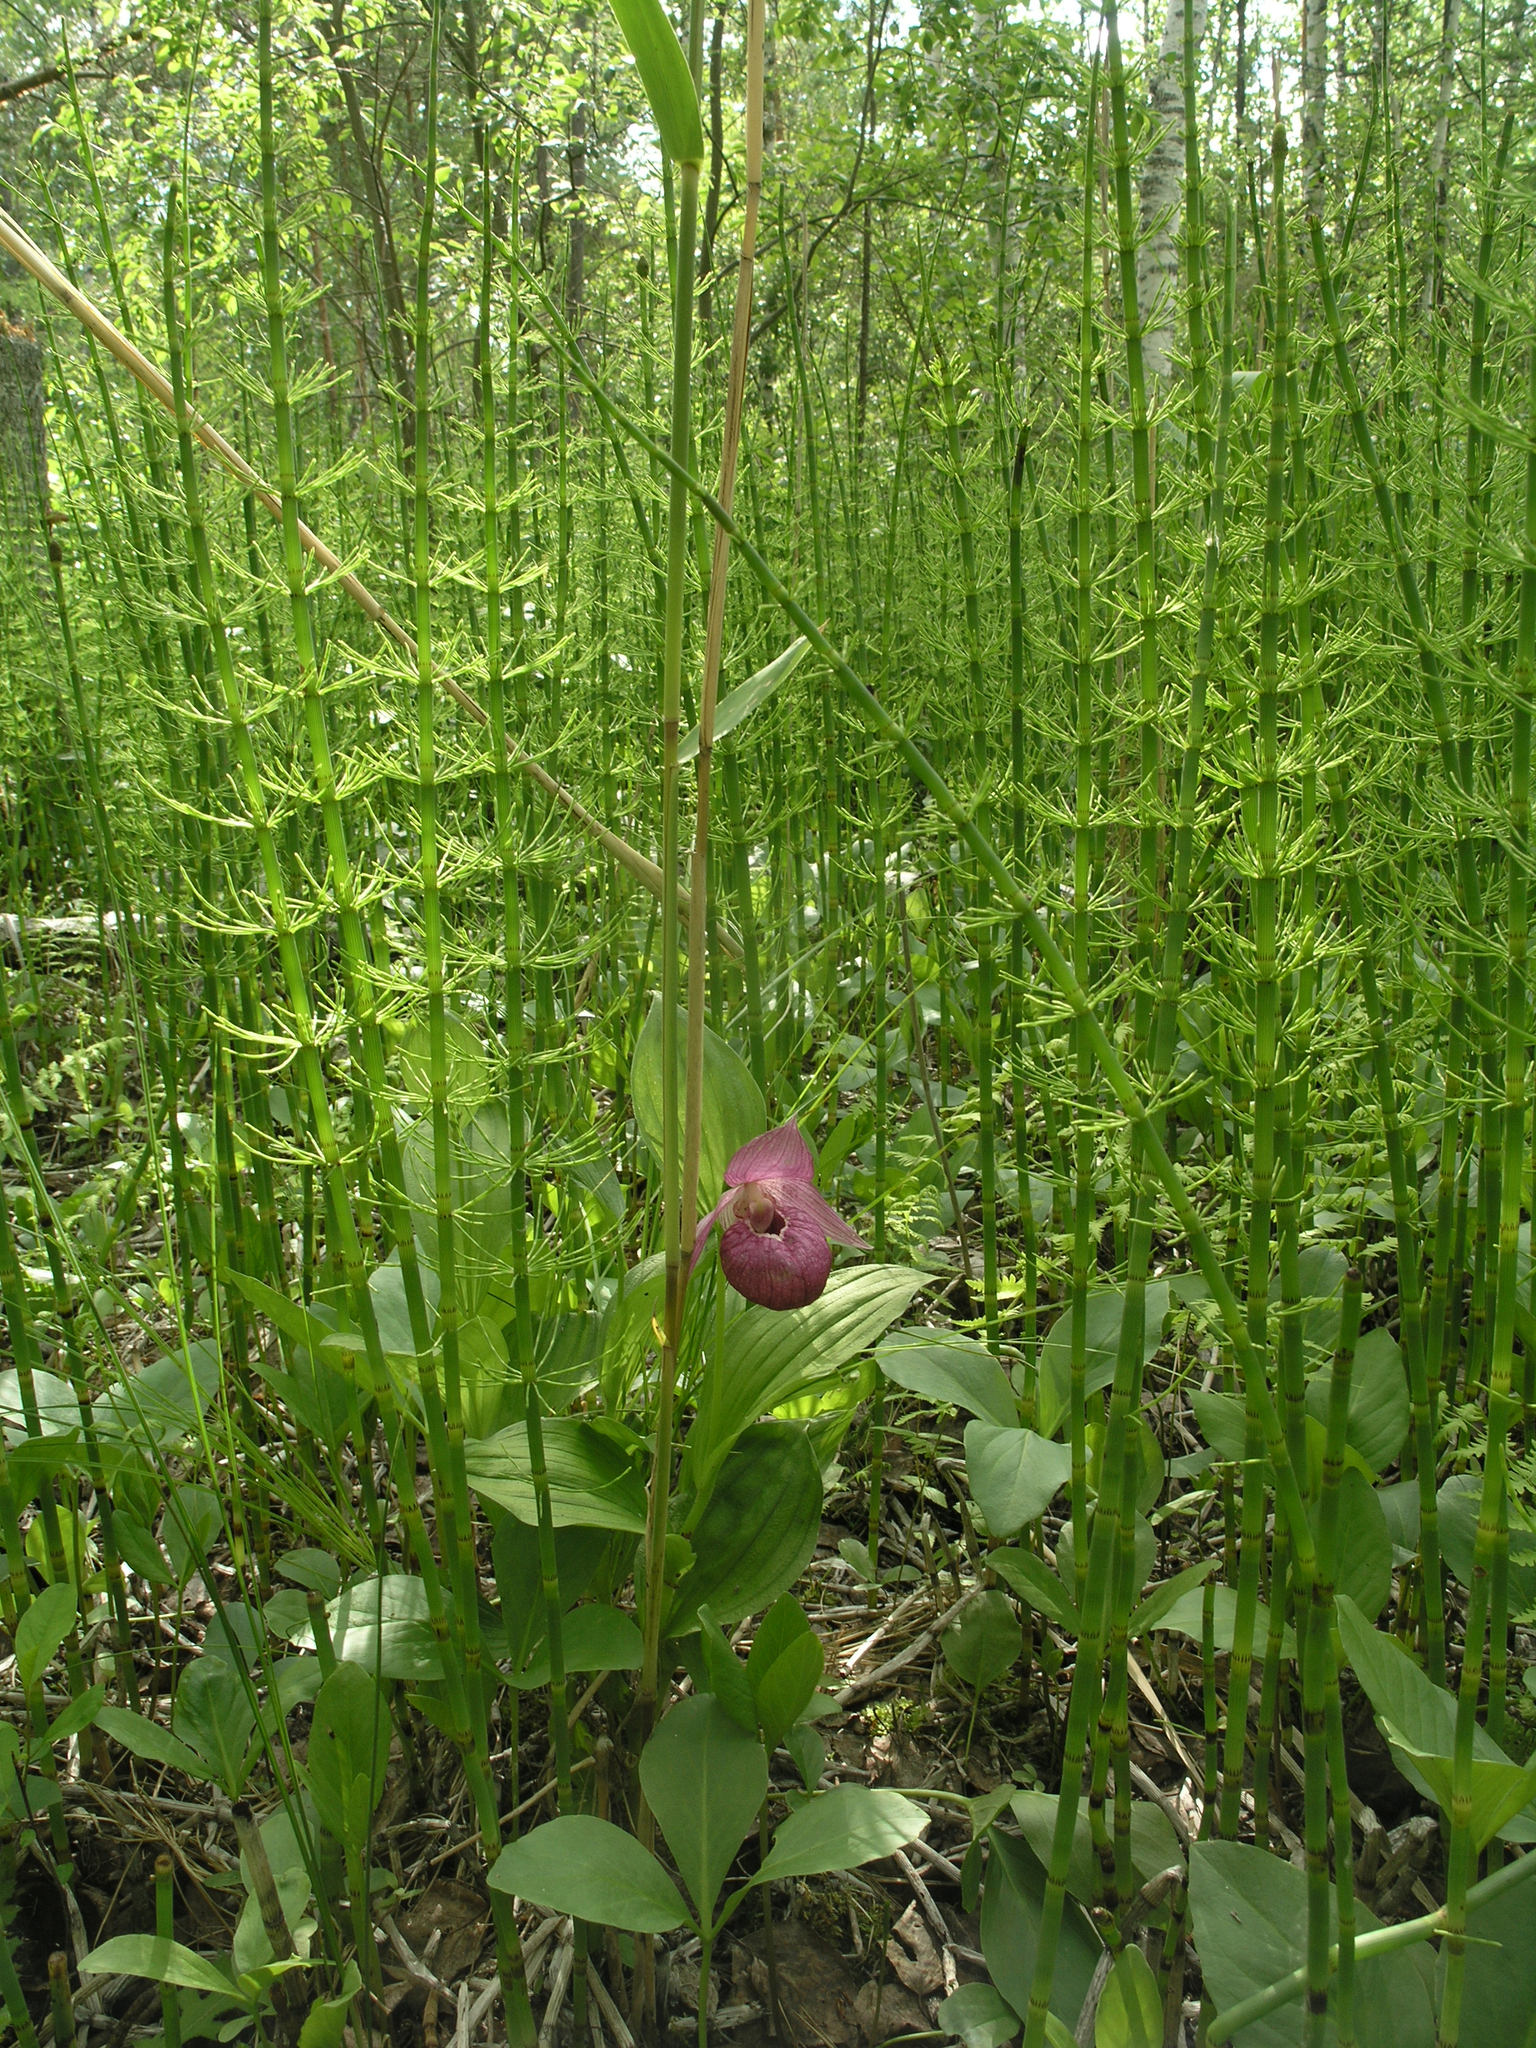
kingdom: Plantae
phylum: Tracheophyta
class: Liliopsida
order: Asparagales
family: Orchidaceae
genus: Cypripedium
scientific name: Cypripedium macranthos
